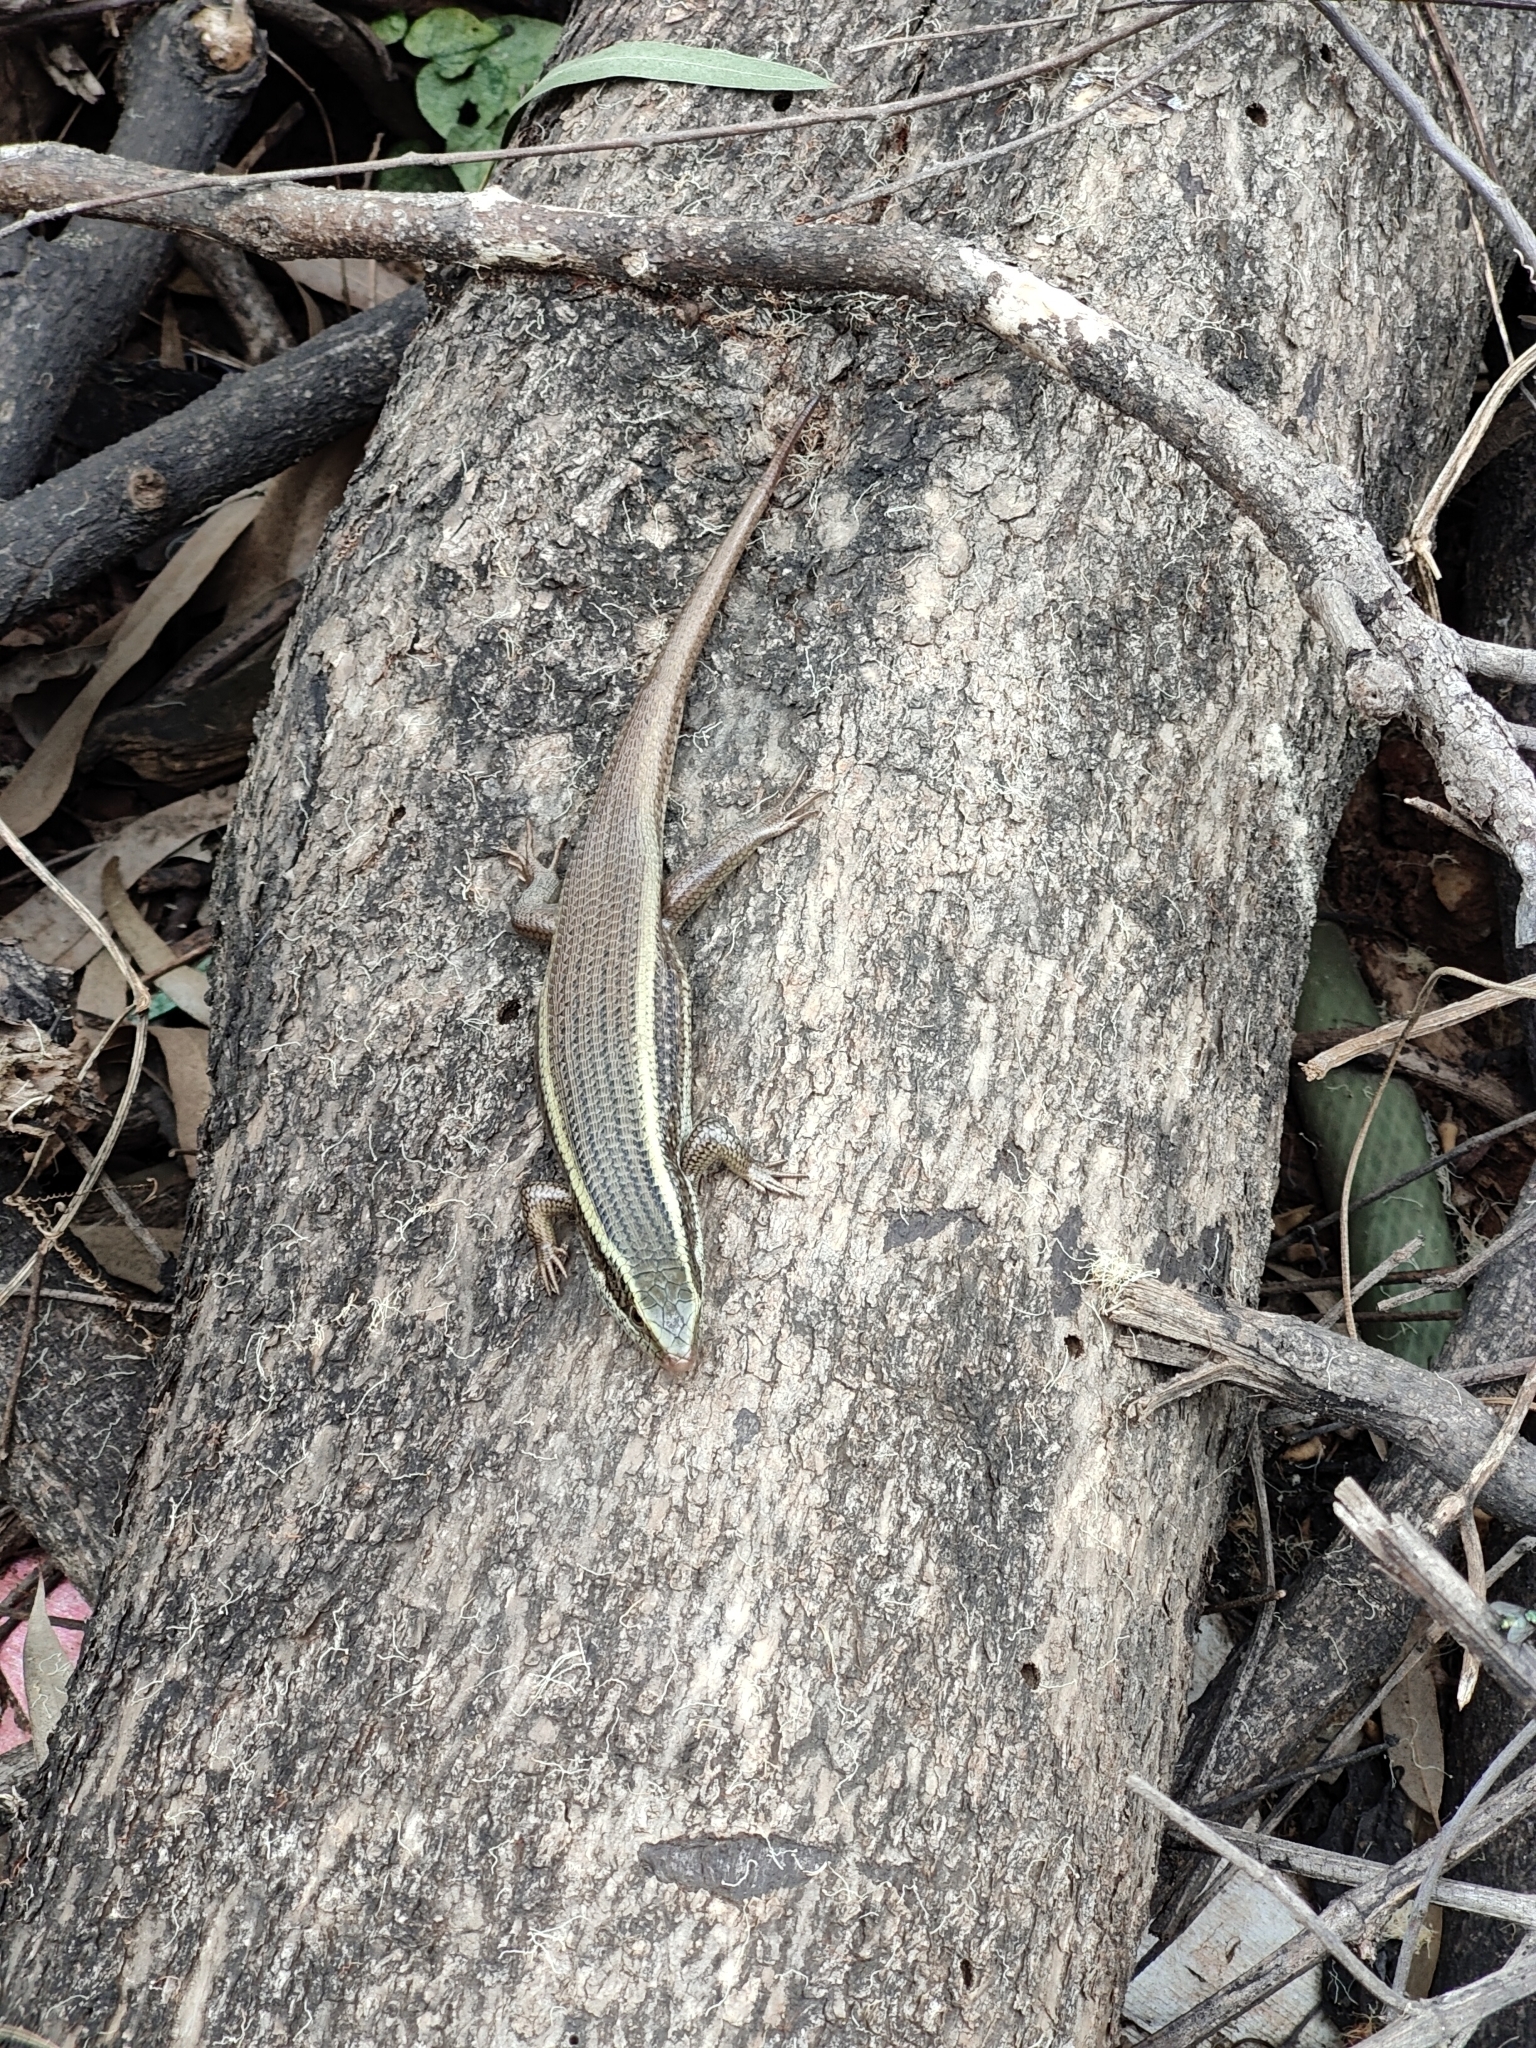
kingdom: Animalia
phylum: Chordata
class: Squamata
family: Scincidae
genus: Eutropis
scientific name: Eutropis carinata
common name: Keeled indian mabuya
